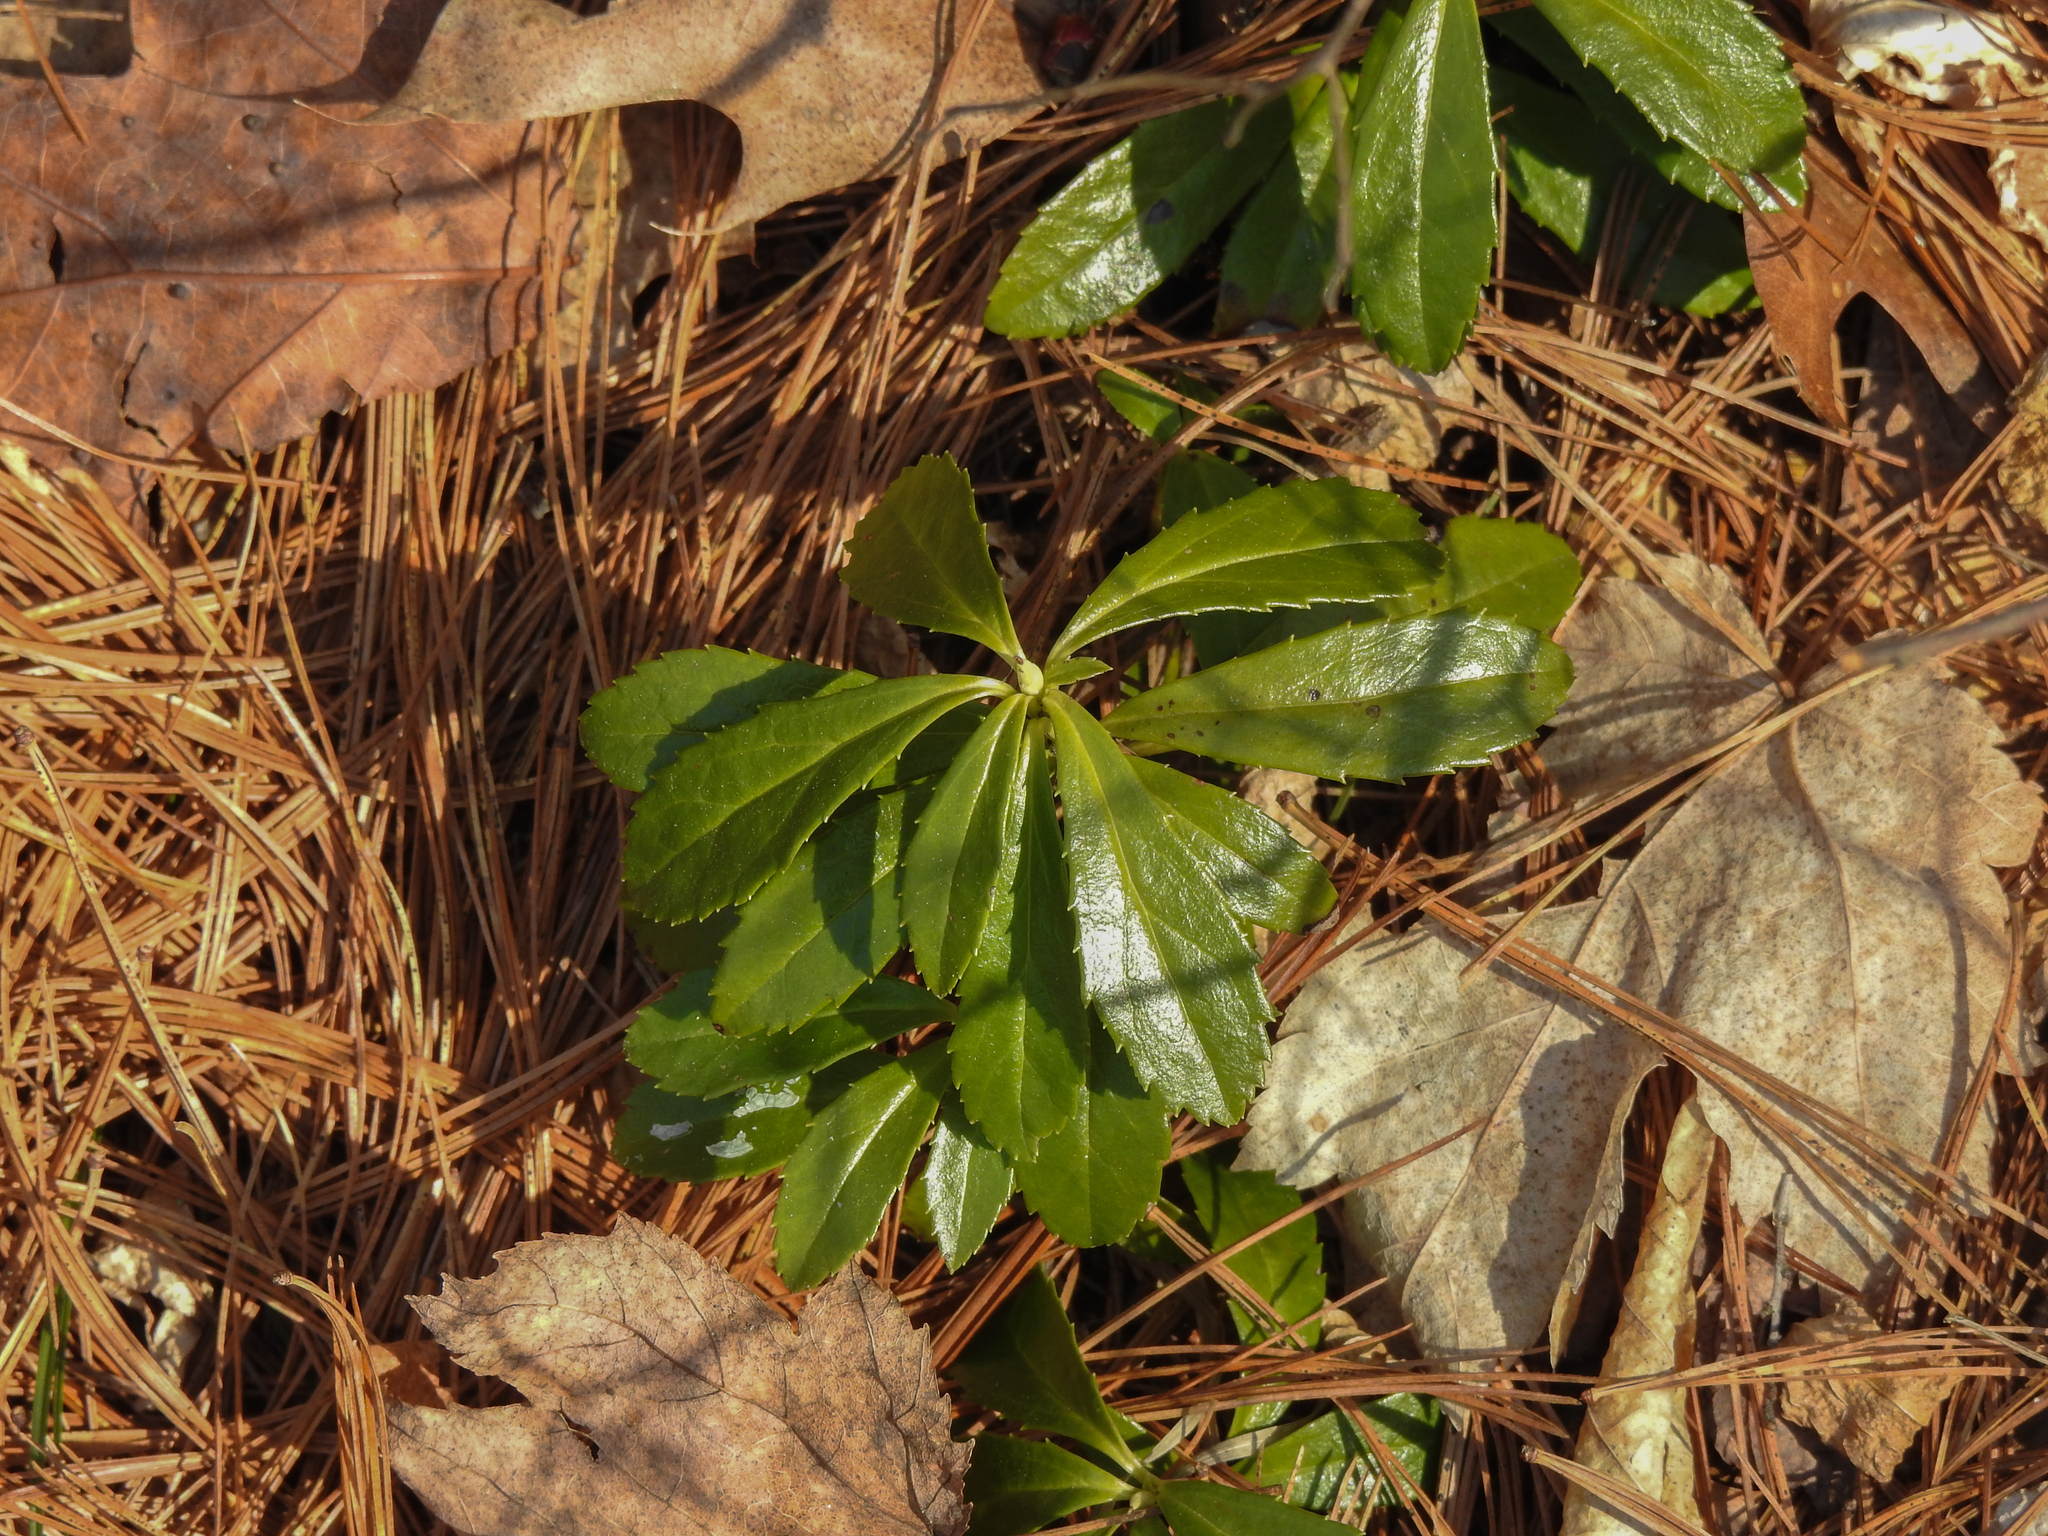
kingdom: Plantae
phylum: Tracheophyta
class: Magnoliopsida
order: Ericales
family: Ericaceae
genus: Chimaphila
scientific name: Chimaphila umbellata
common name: Pipsissewa
